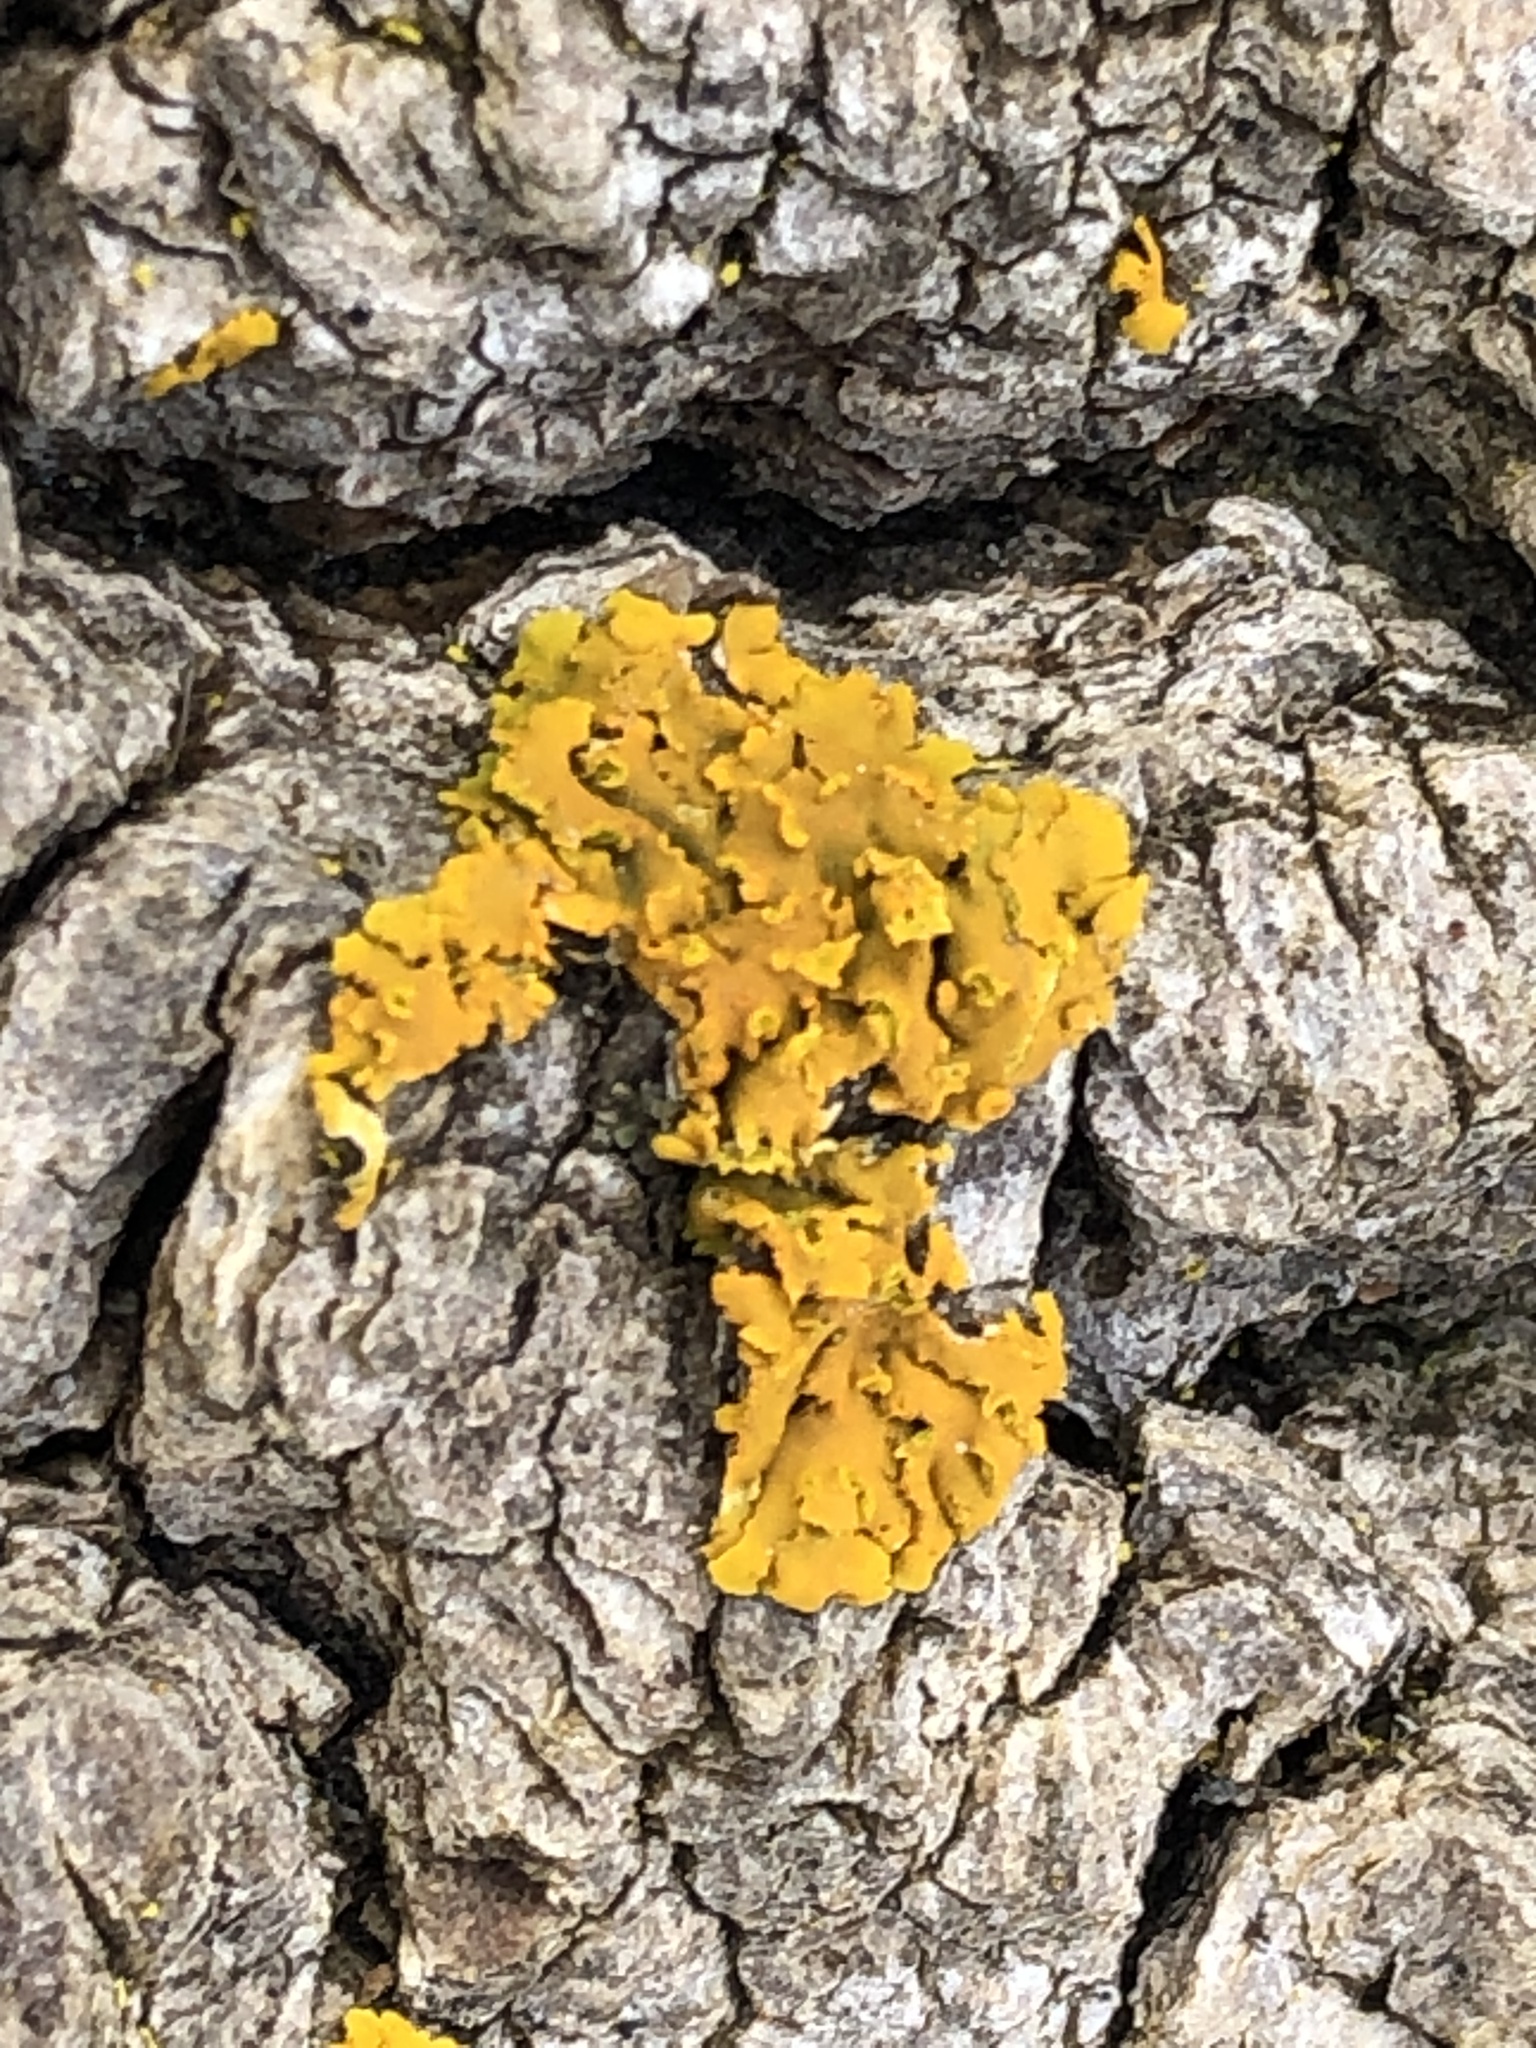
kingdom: Fungi
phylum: Ascomycota
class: Lecanoromycetes
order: Teloschistales
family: Teloschistaceae
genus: Oxneria
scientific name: Oxneria fallax
